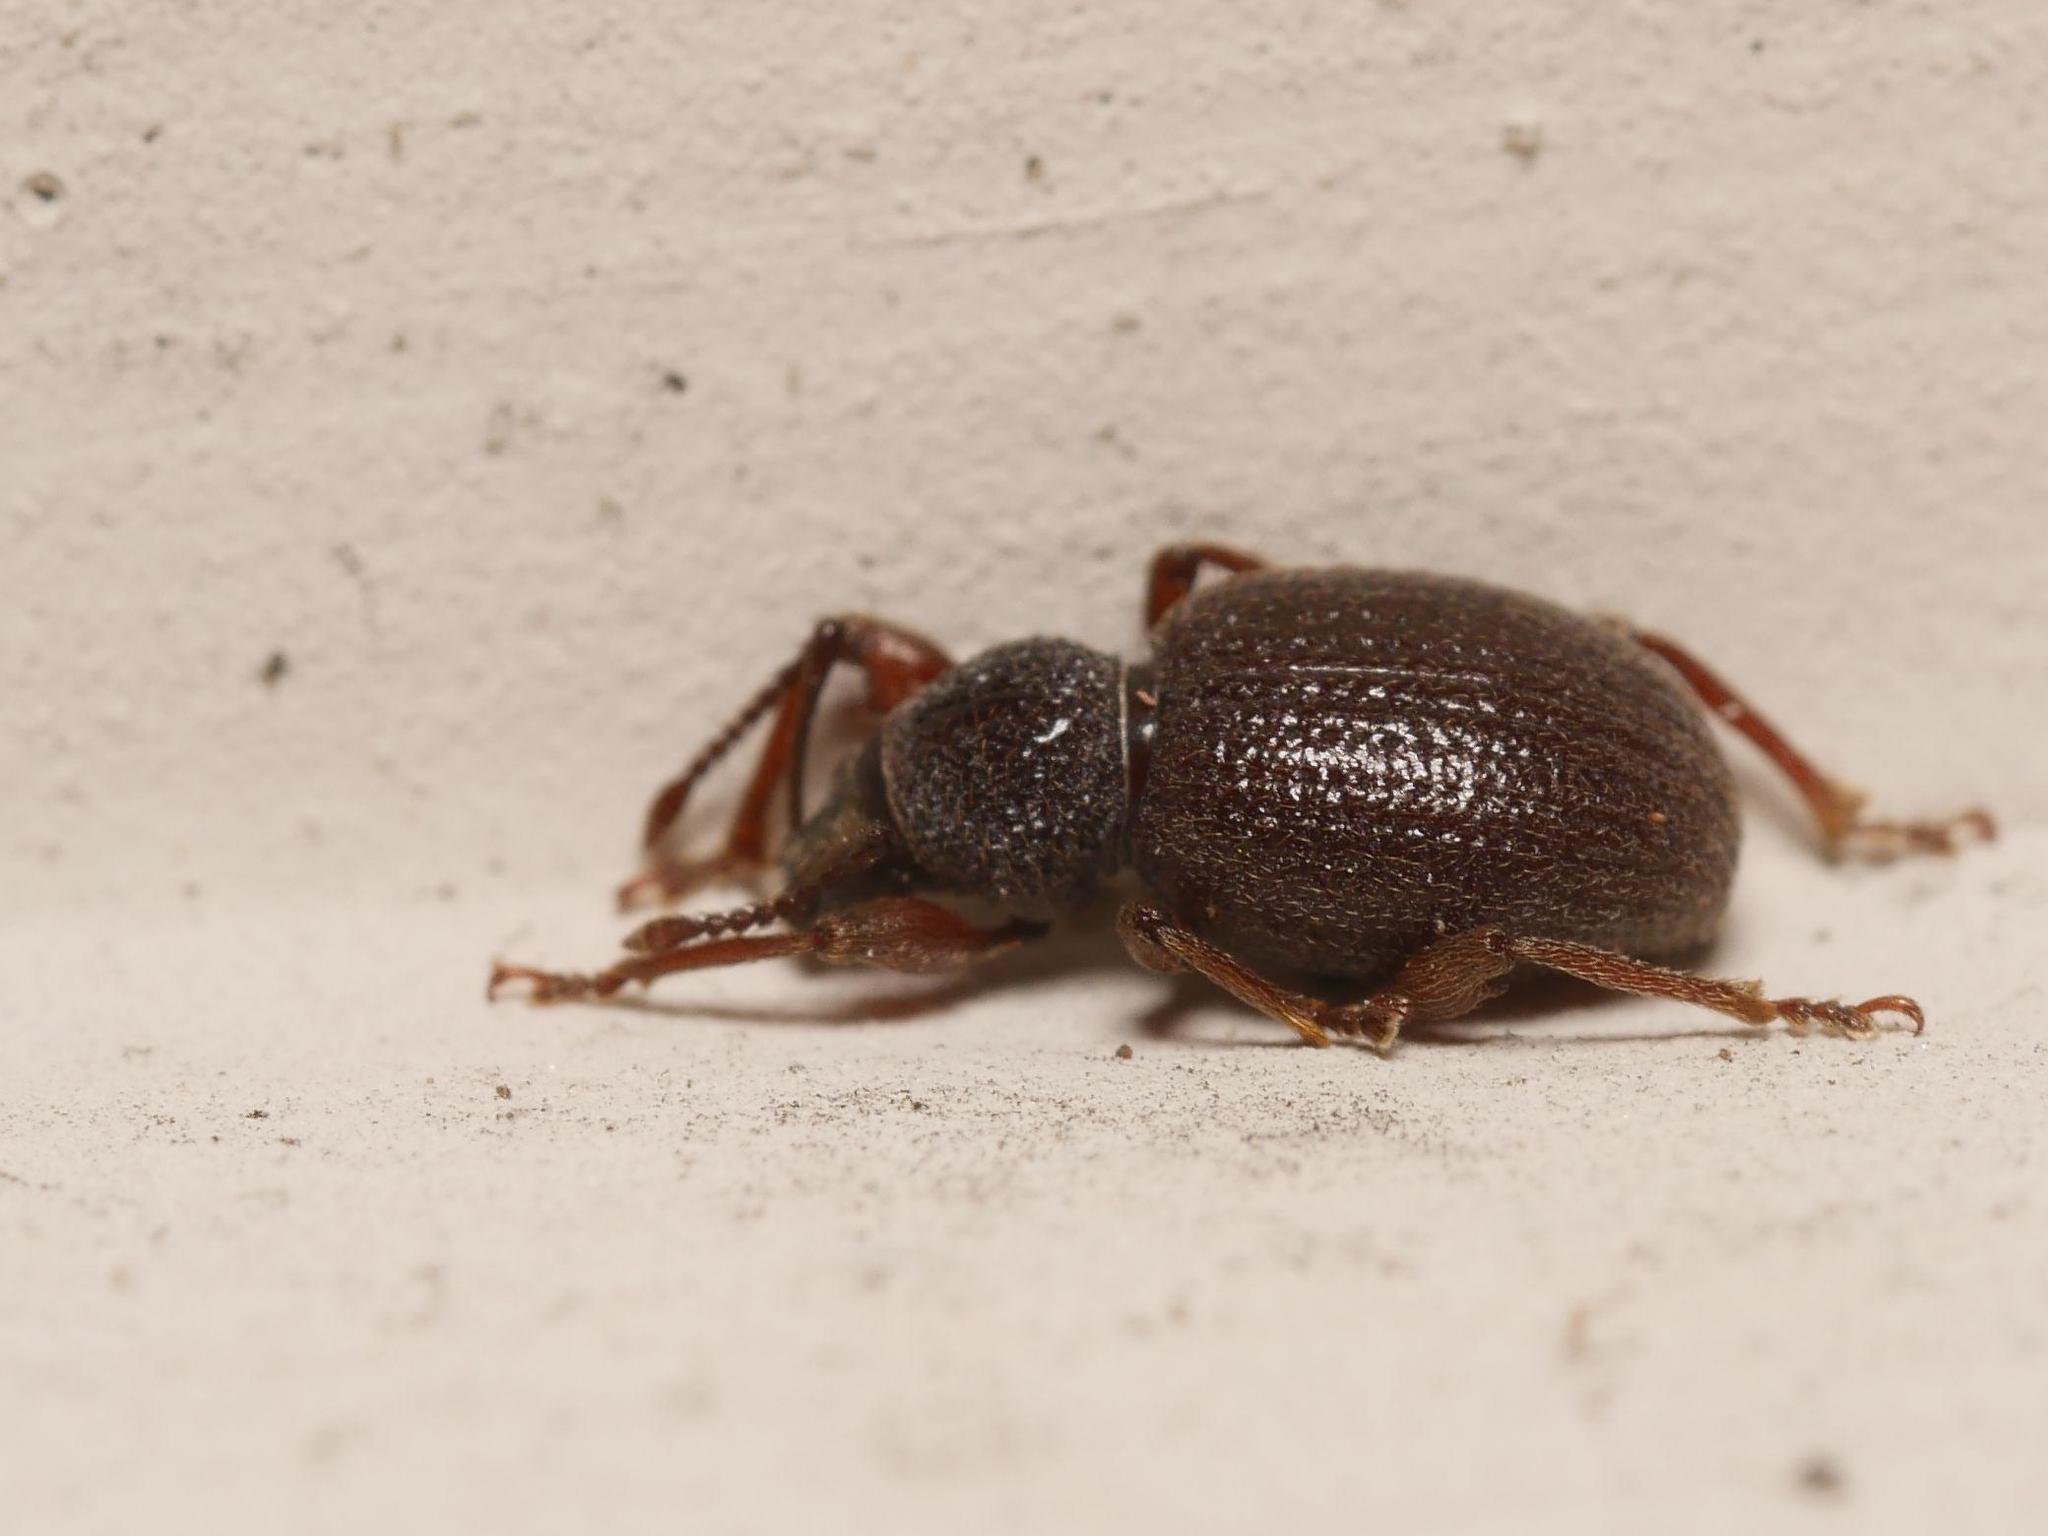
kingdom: Animalia
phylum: Arthropoda
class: Insecta
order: Coleoptera
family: Curculionidae
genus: Otiorhynchus
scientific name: Otiorhynchus ovatus
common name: Strawberry root weevil
